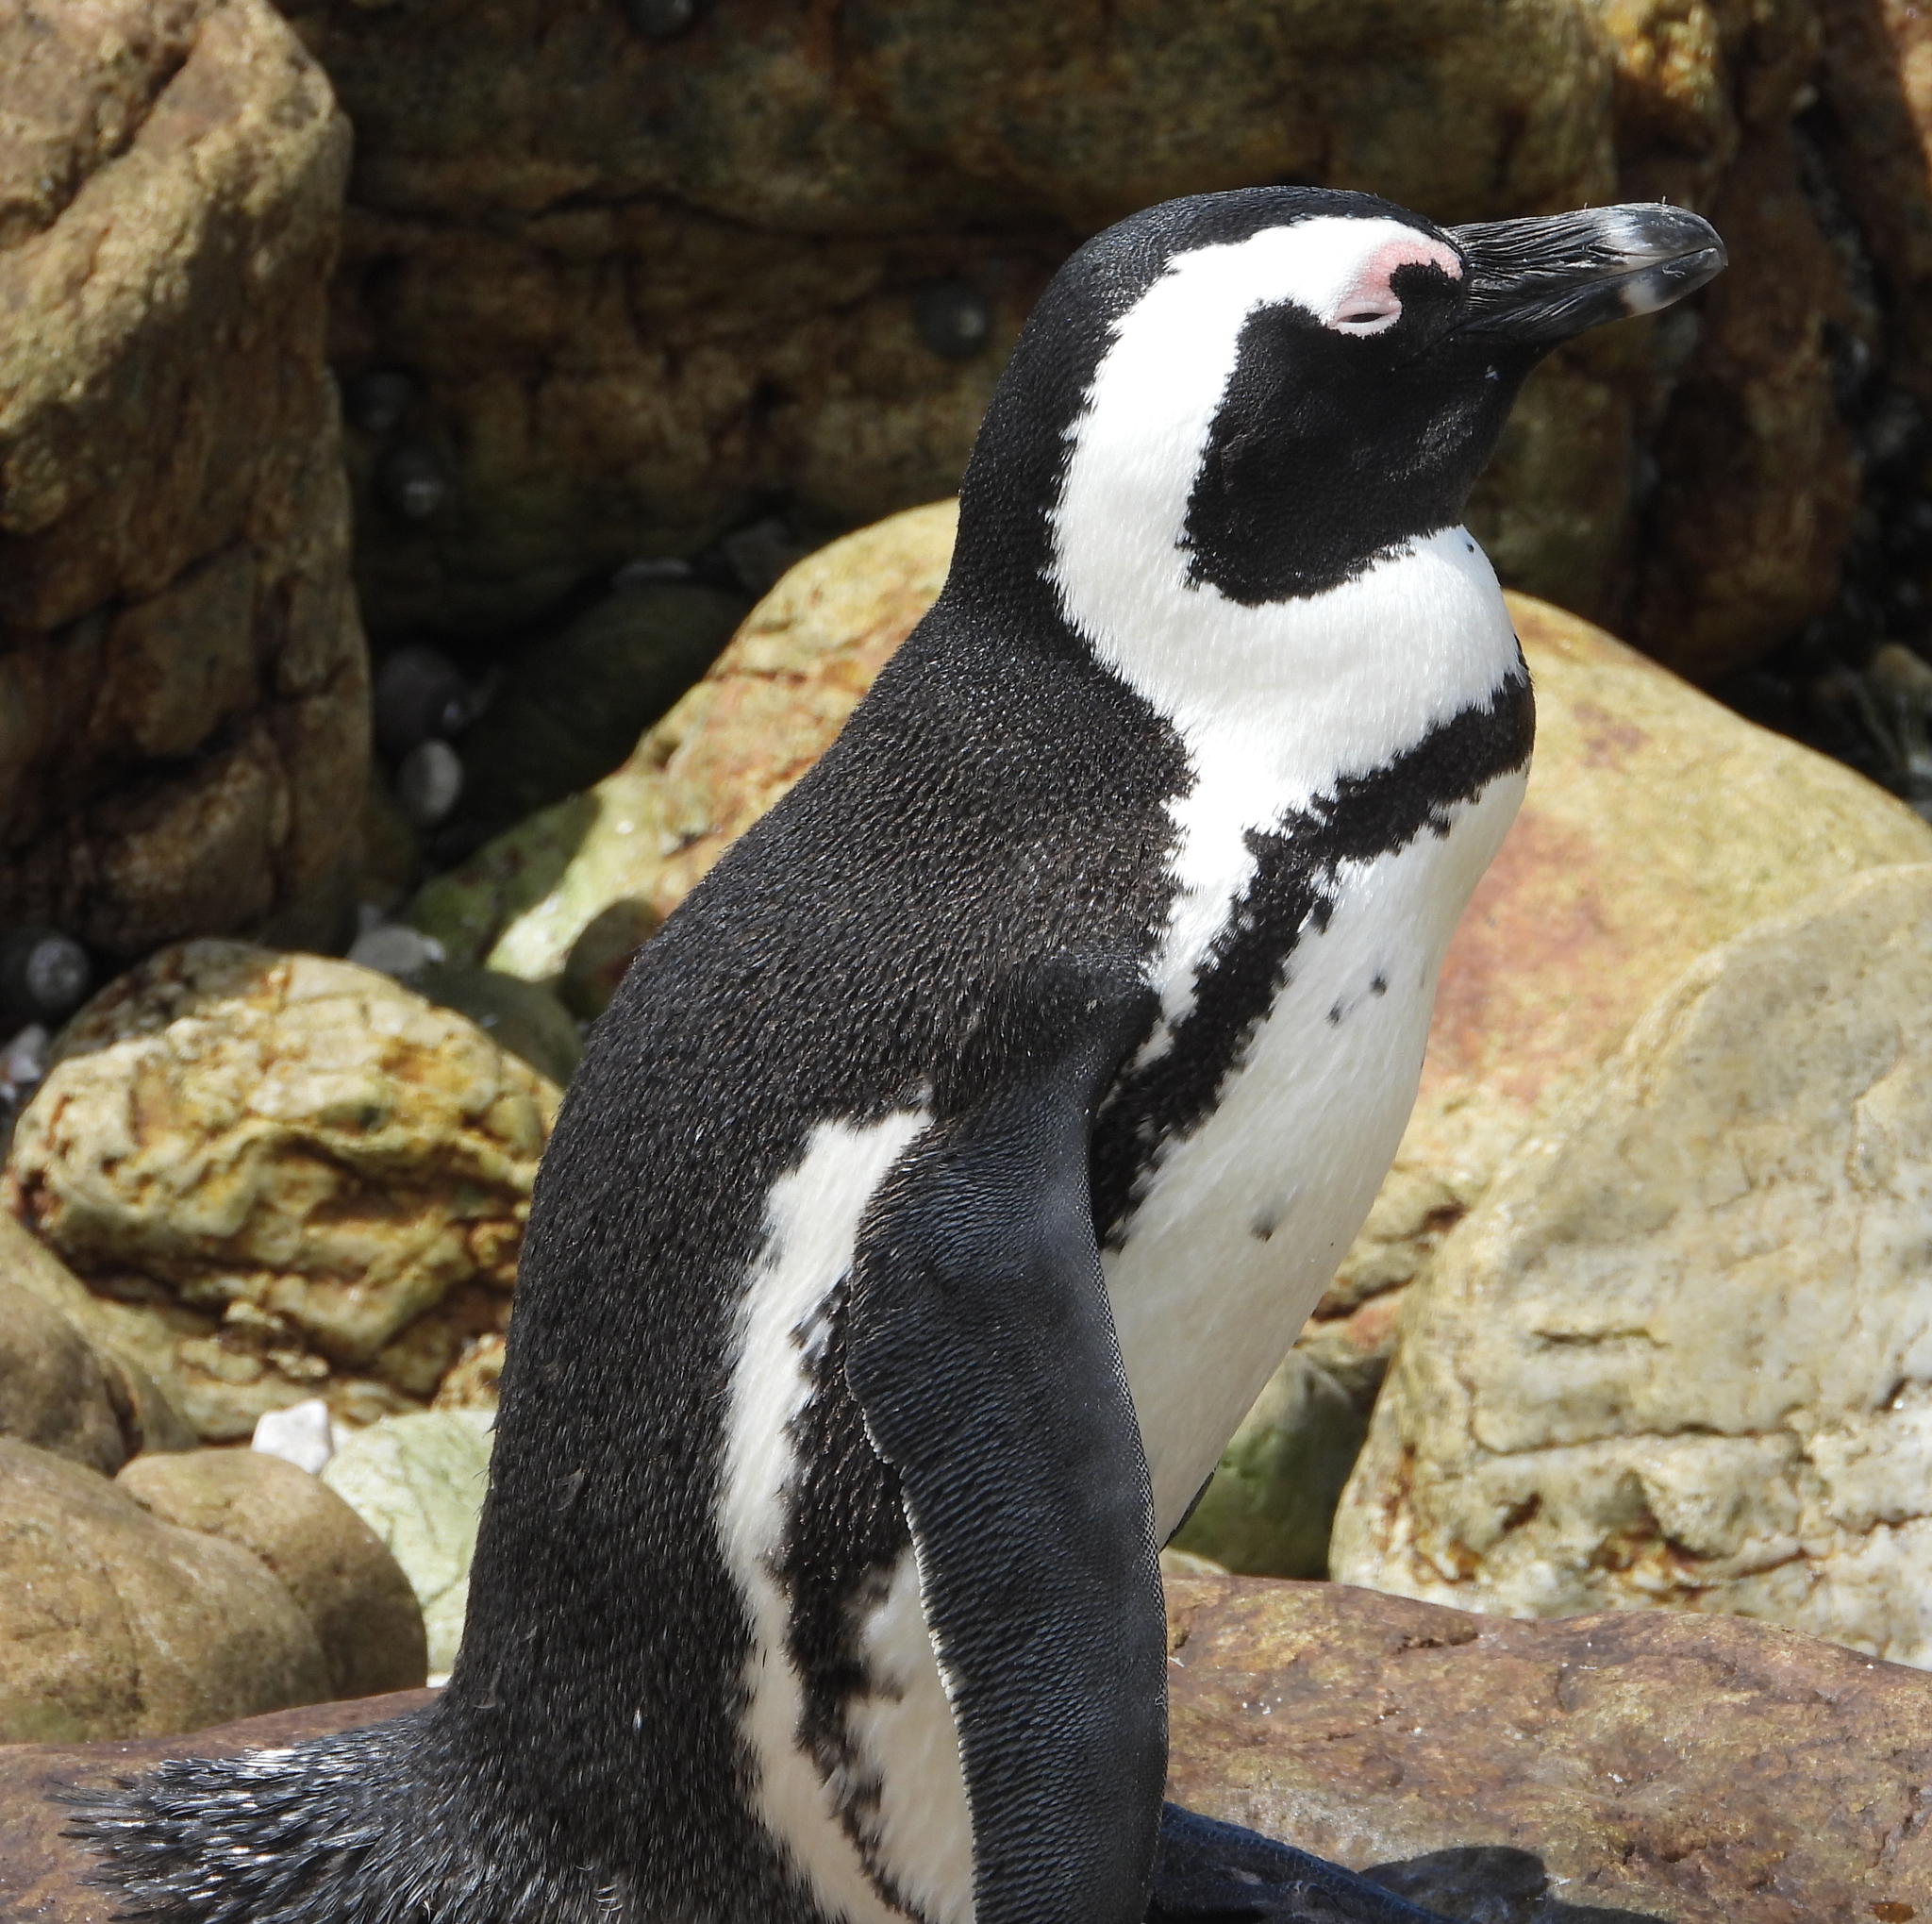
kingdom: Animalia
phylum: Chordata
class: Aves
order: Sphenisciformes
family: Spheniscidae
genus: Spheniscus
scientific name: Spheniscus demersus
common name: African penguin
